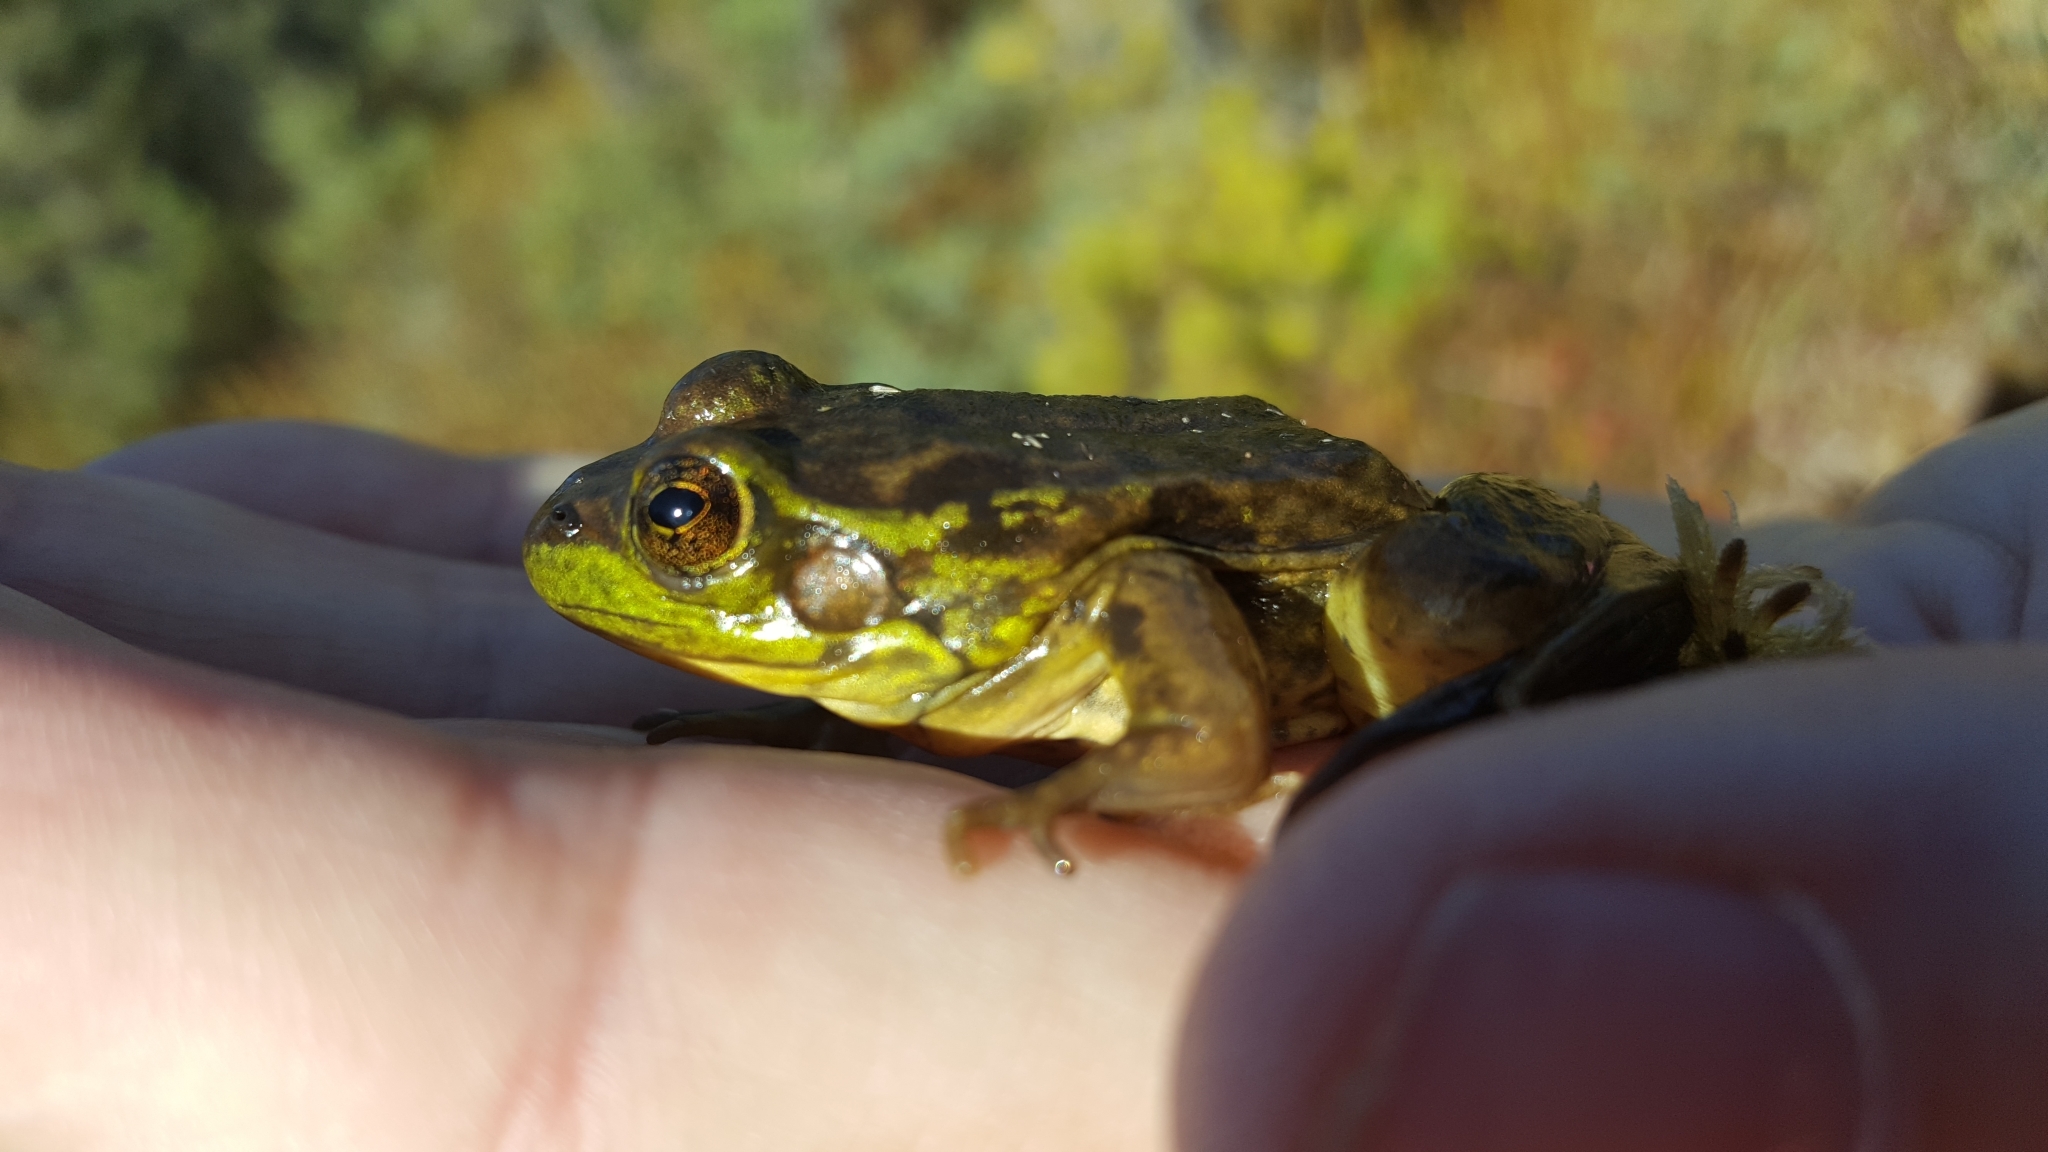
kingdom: Animalia
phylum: Chordata
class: Amphibia
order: Anura
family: Ranidae
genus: Lithobates
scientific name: Lithobates septentrionalis
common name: Mink frog
